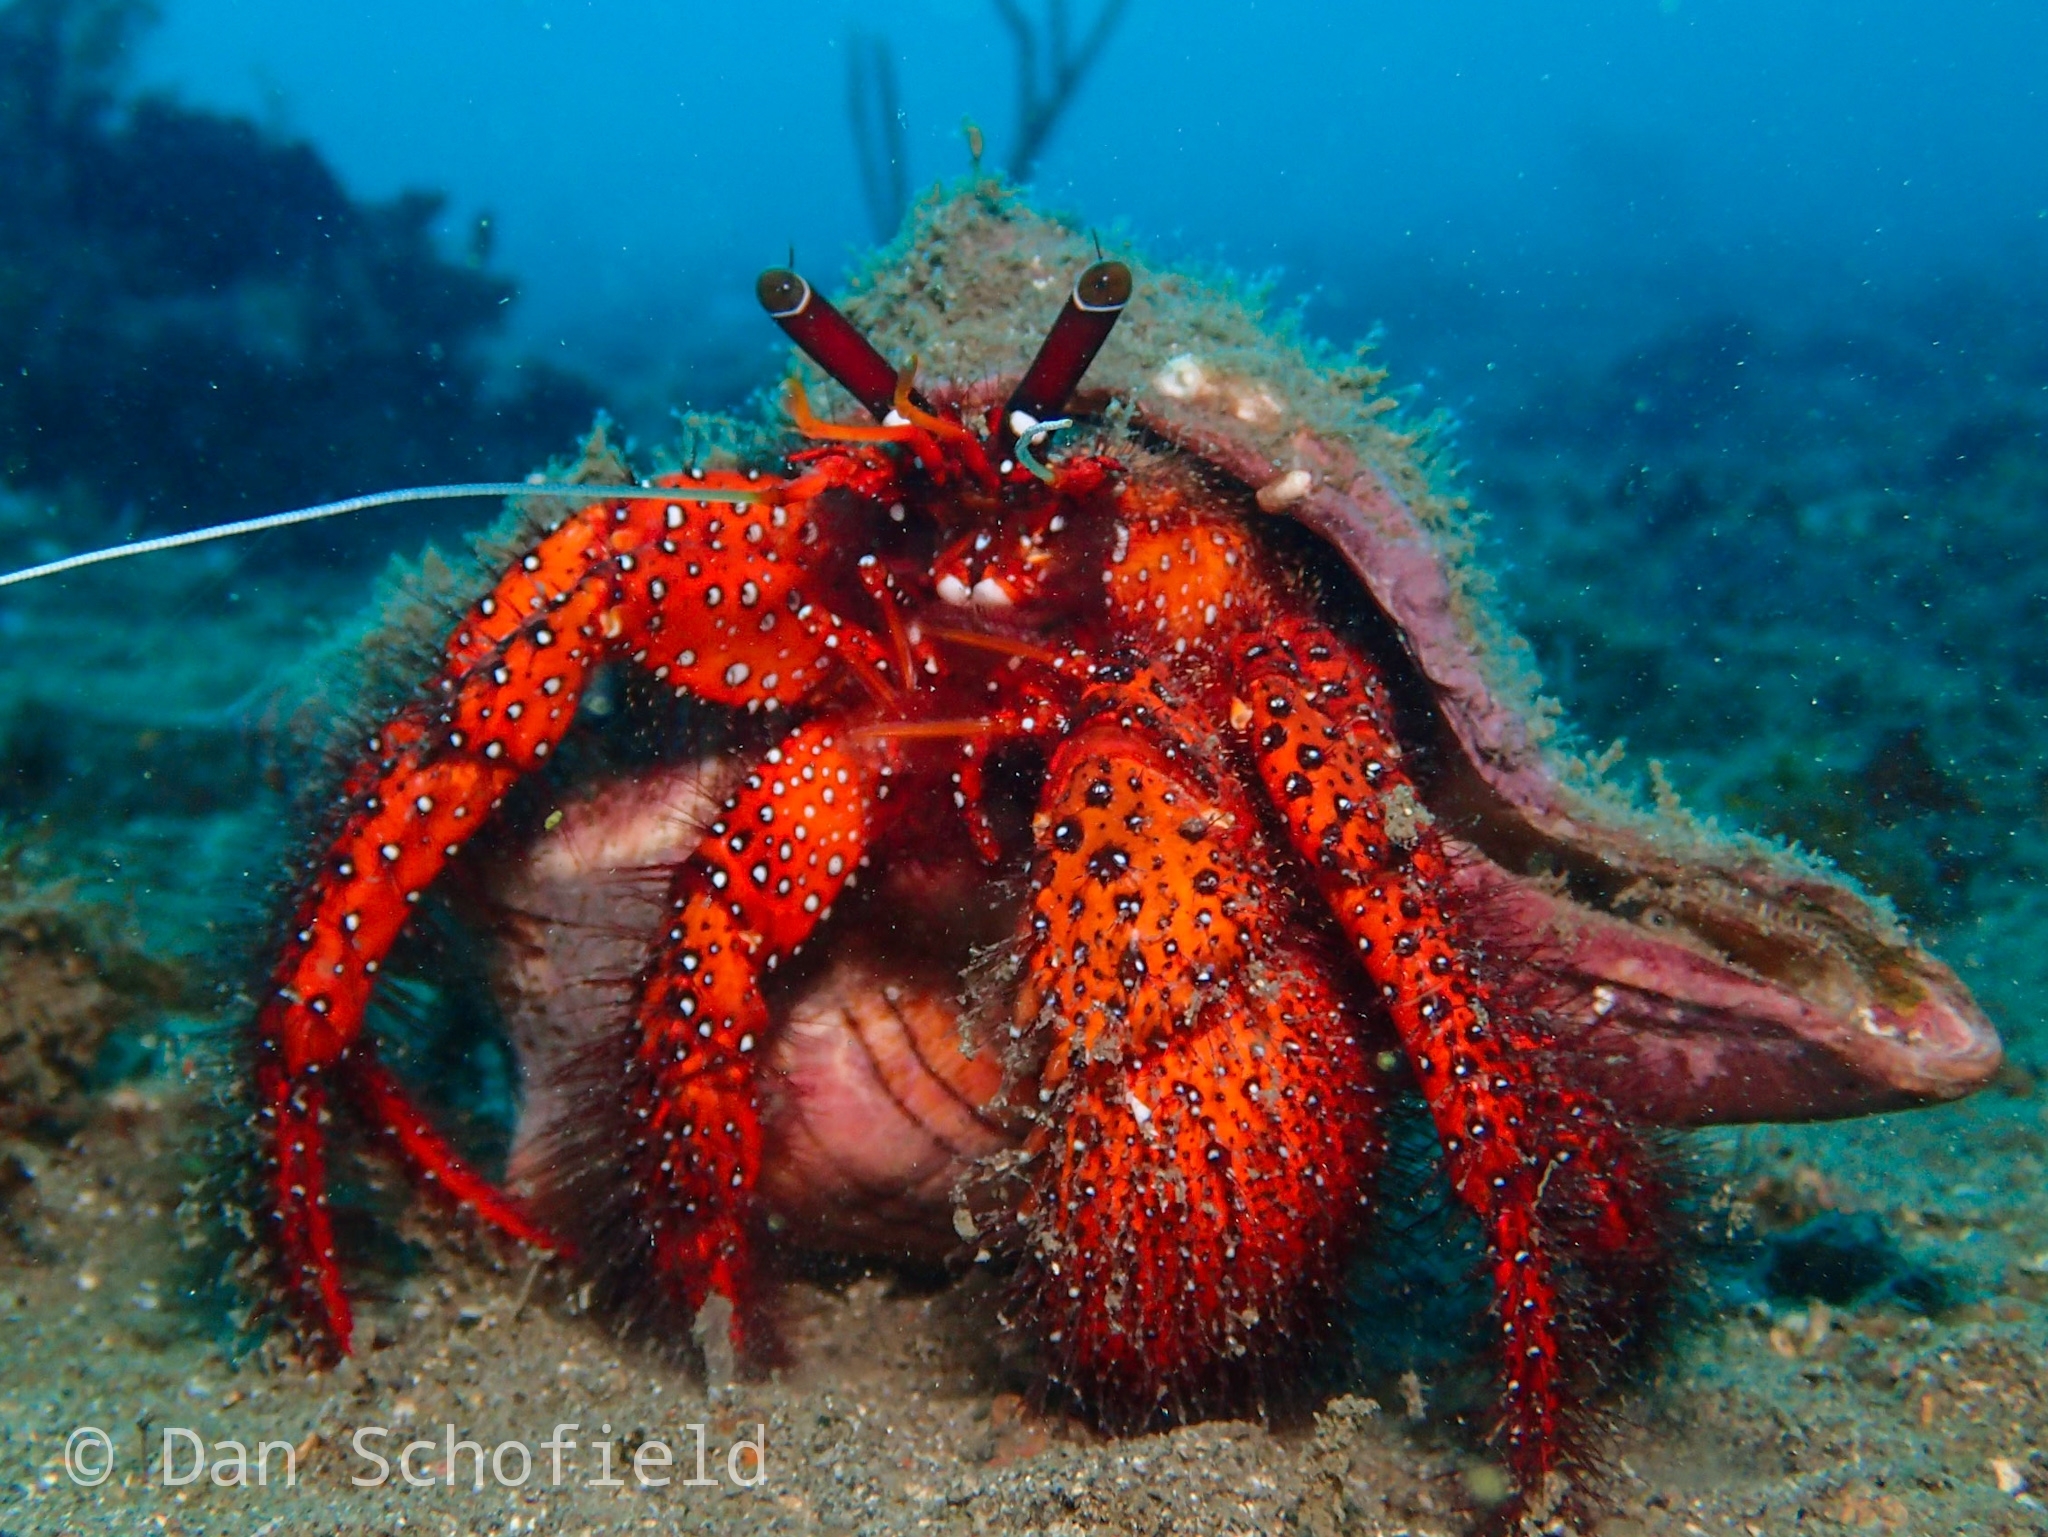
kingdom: Animalia
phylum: Arthropoda
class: Malacostraca
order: Decapoda
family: Diogenidae
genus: Dardanus
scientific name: Dardanus megistos
